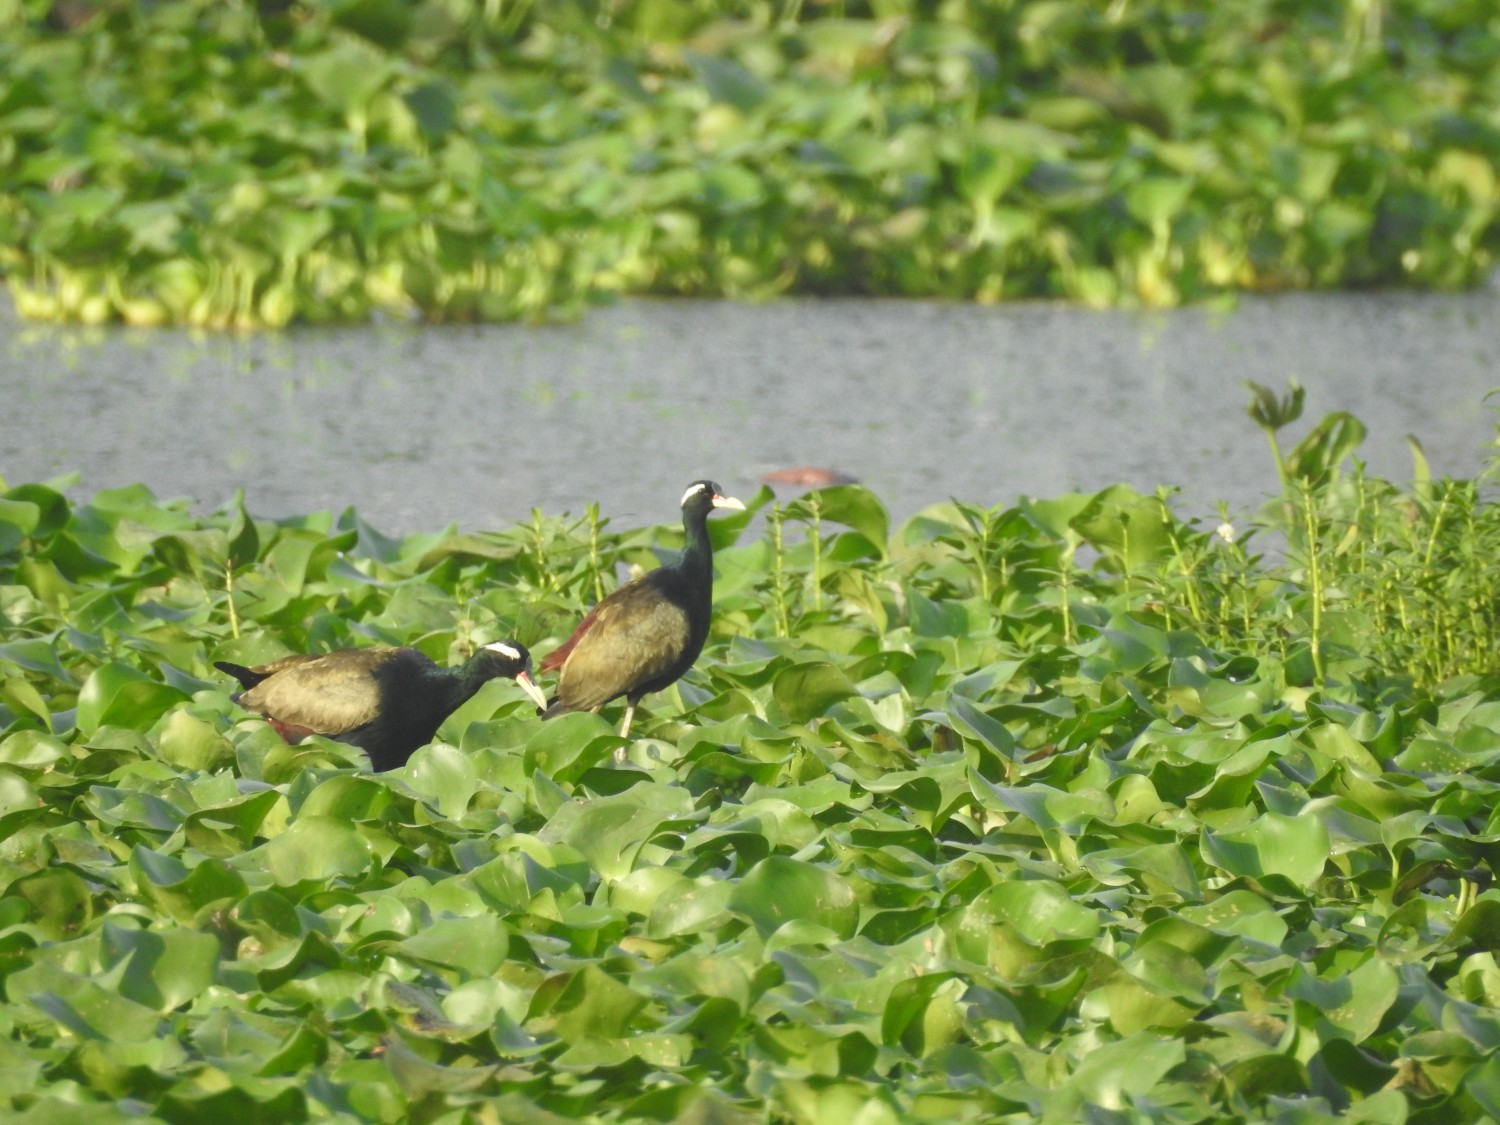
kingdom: Animalia
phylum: Chordata
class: Aves
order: Charadriiformes
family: Jacanidae
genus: Metopidius
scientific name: Metopidius indicus
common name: Bronze-winged jacana
